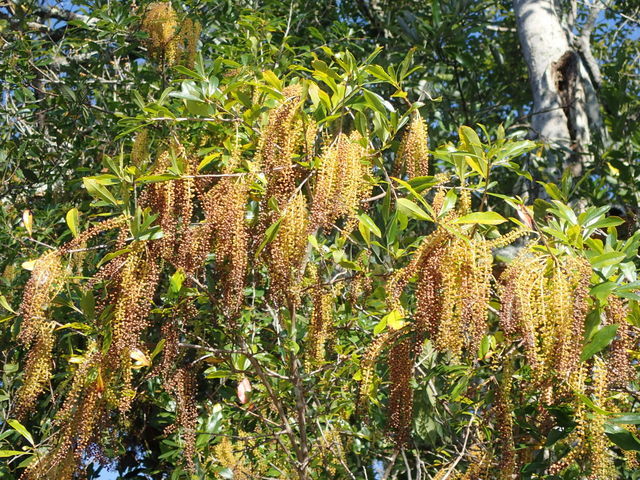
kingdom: Plantae
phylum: Tracheophyta
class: Magnoliopsida
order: Ericales
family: Cyrillaceae
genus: Cyrilla
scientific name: Cyrilla racemiflora
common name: Black titi
